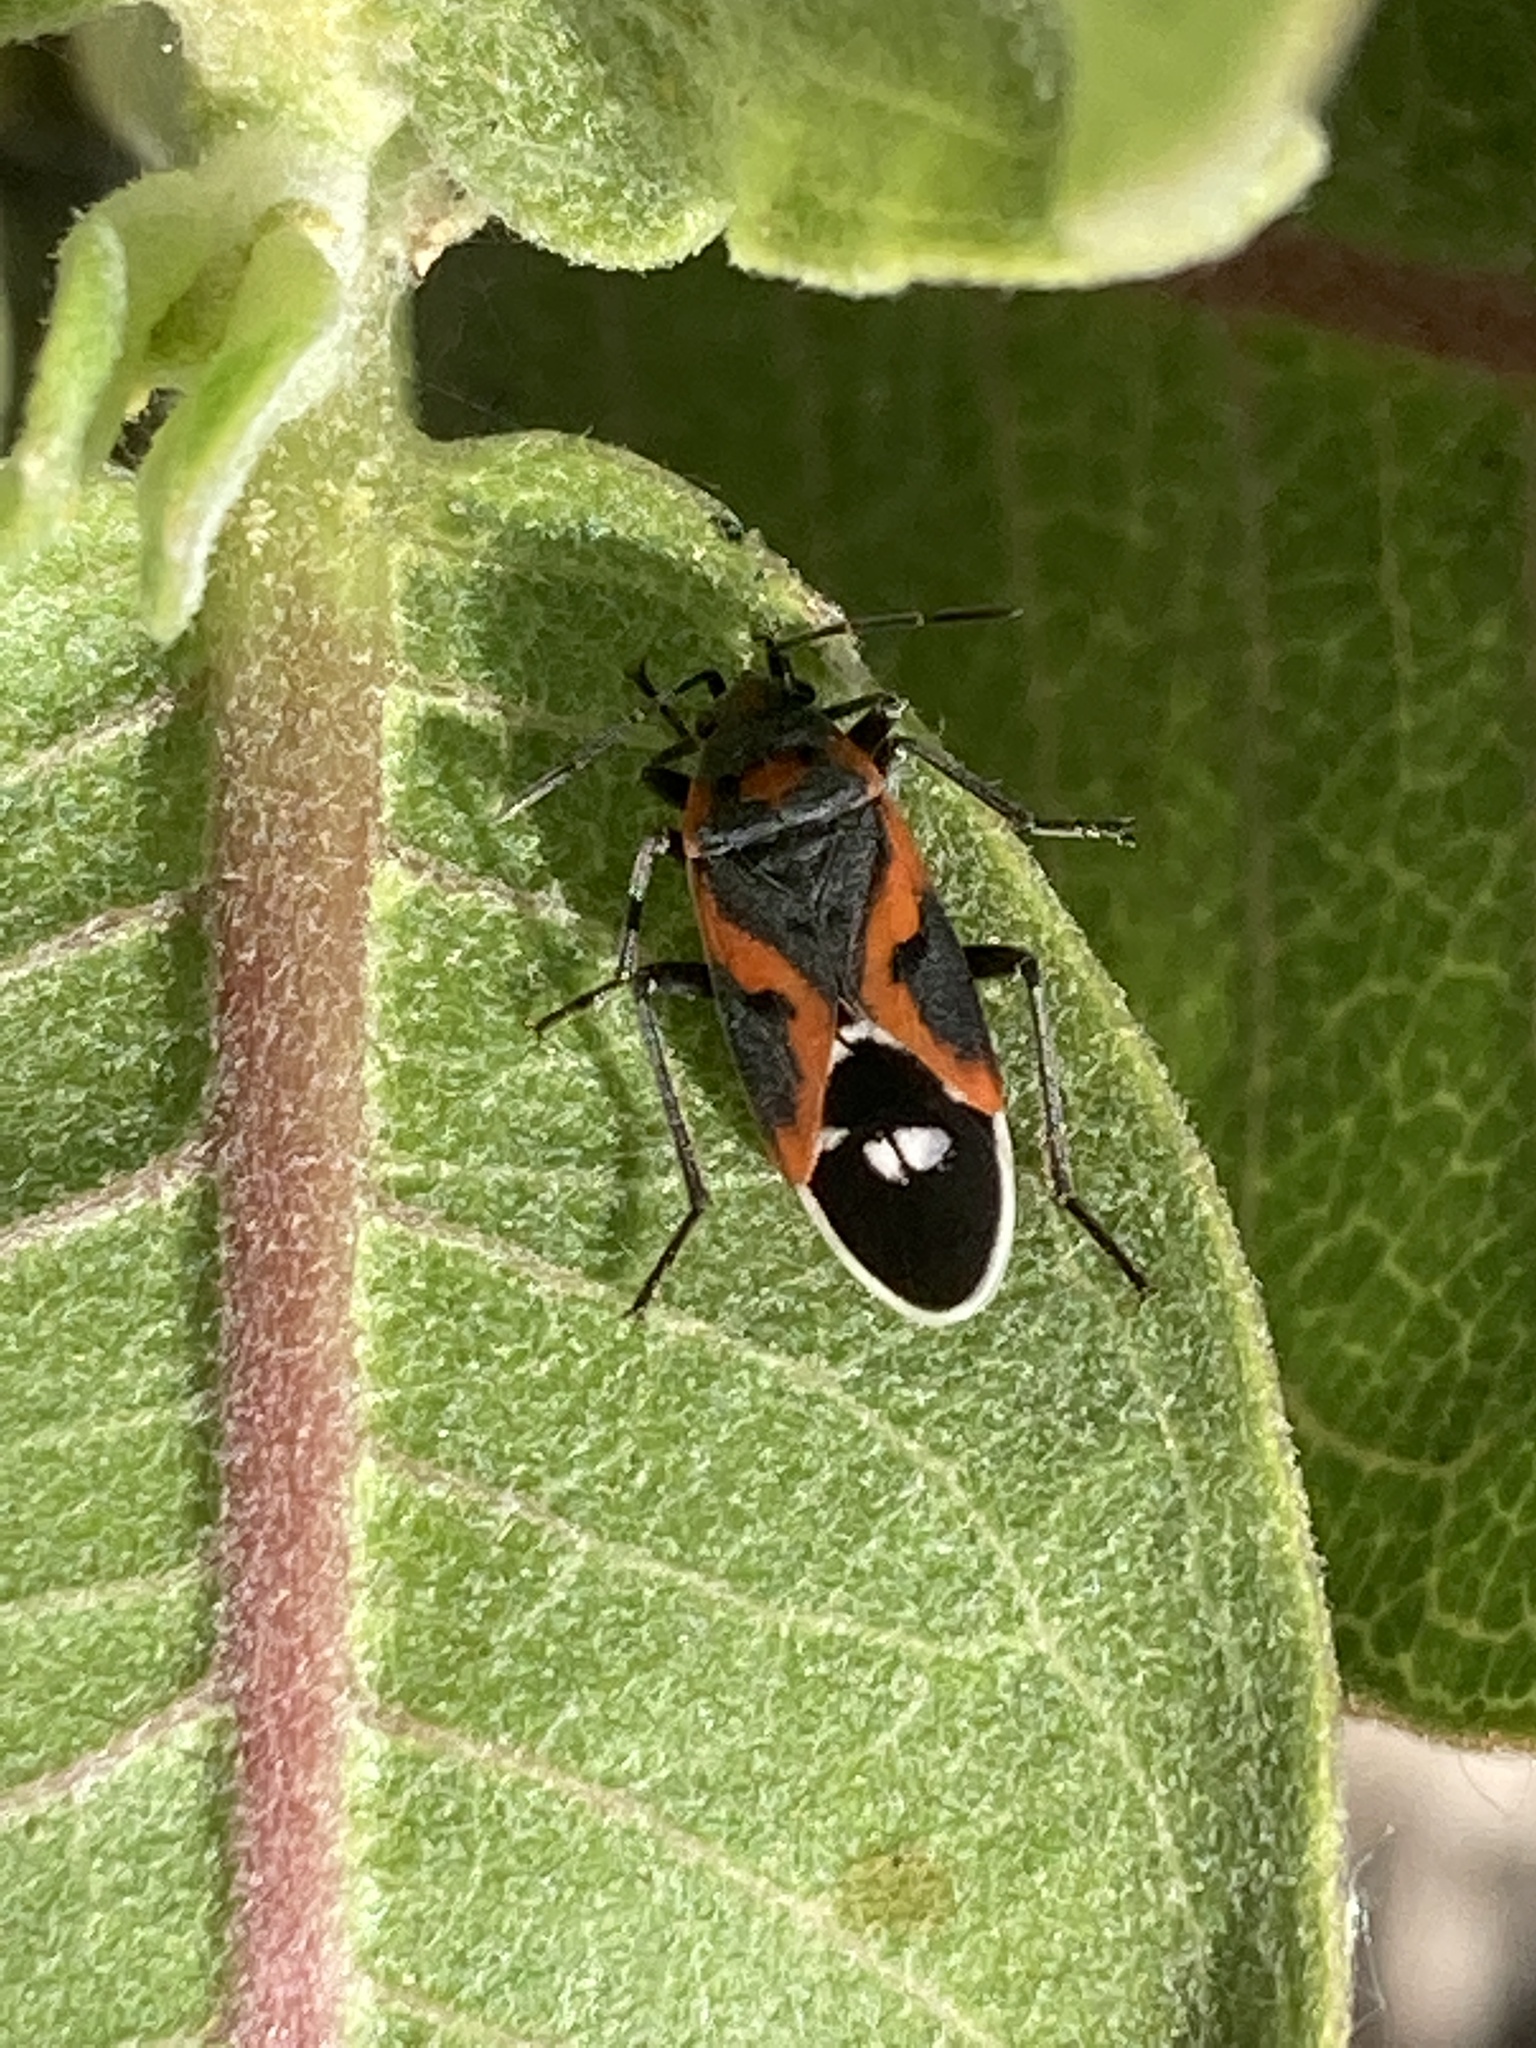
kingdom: Animalia
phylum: Arthropoda
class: Insecta
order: Hemiptera
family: Lygaeidae
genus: Lygaeus
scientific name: Lygaeus kalmii
